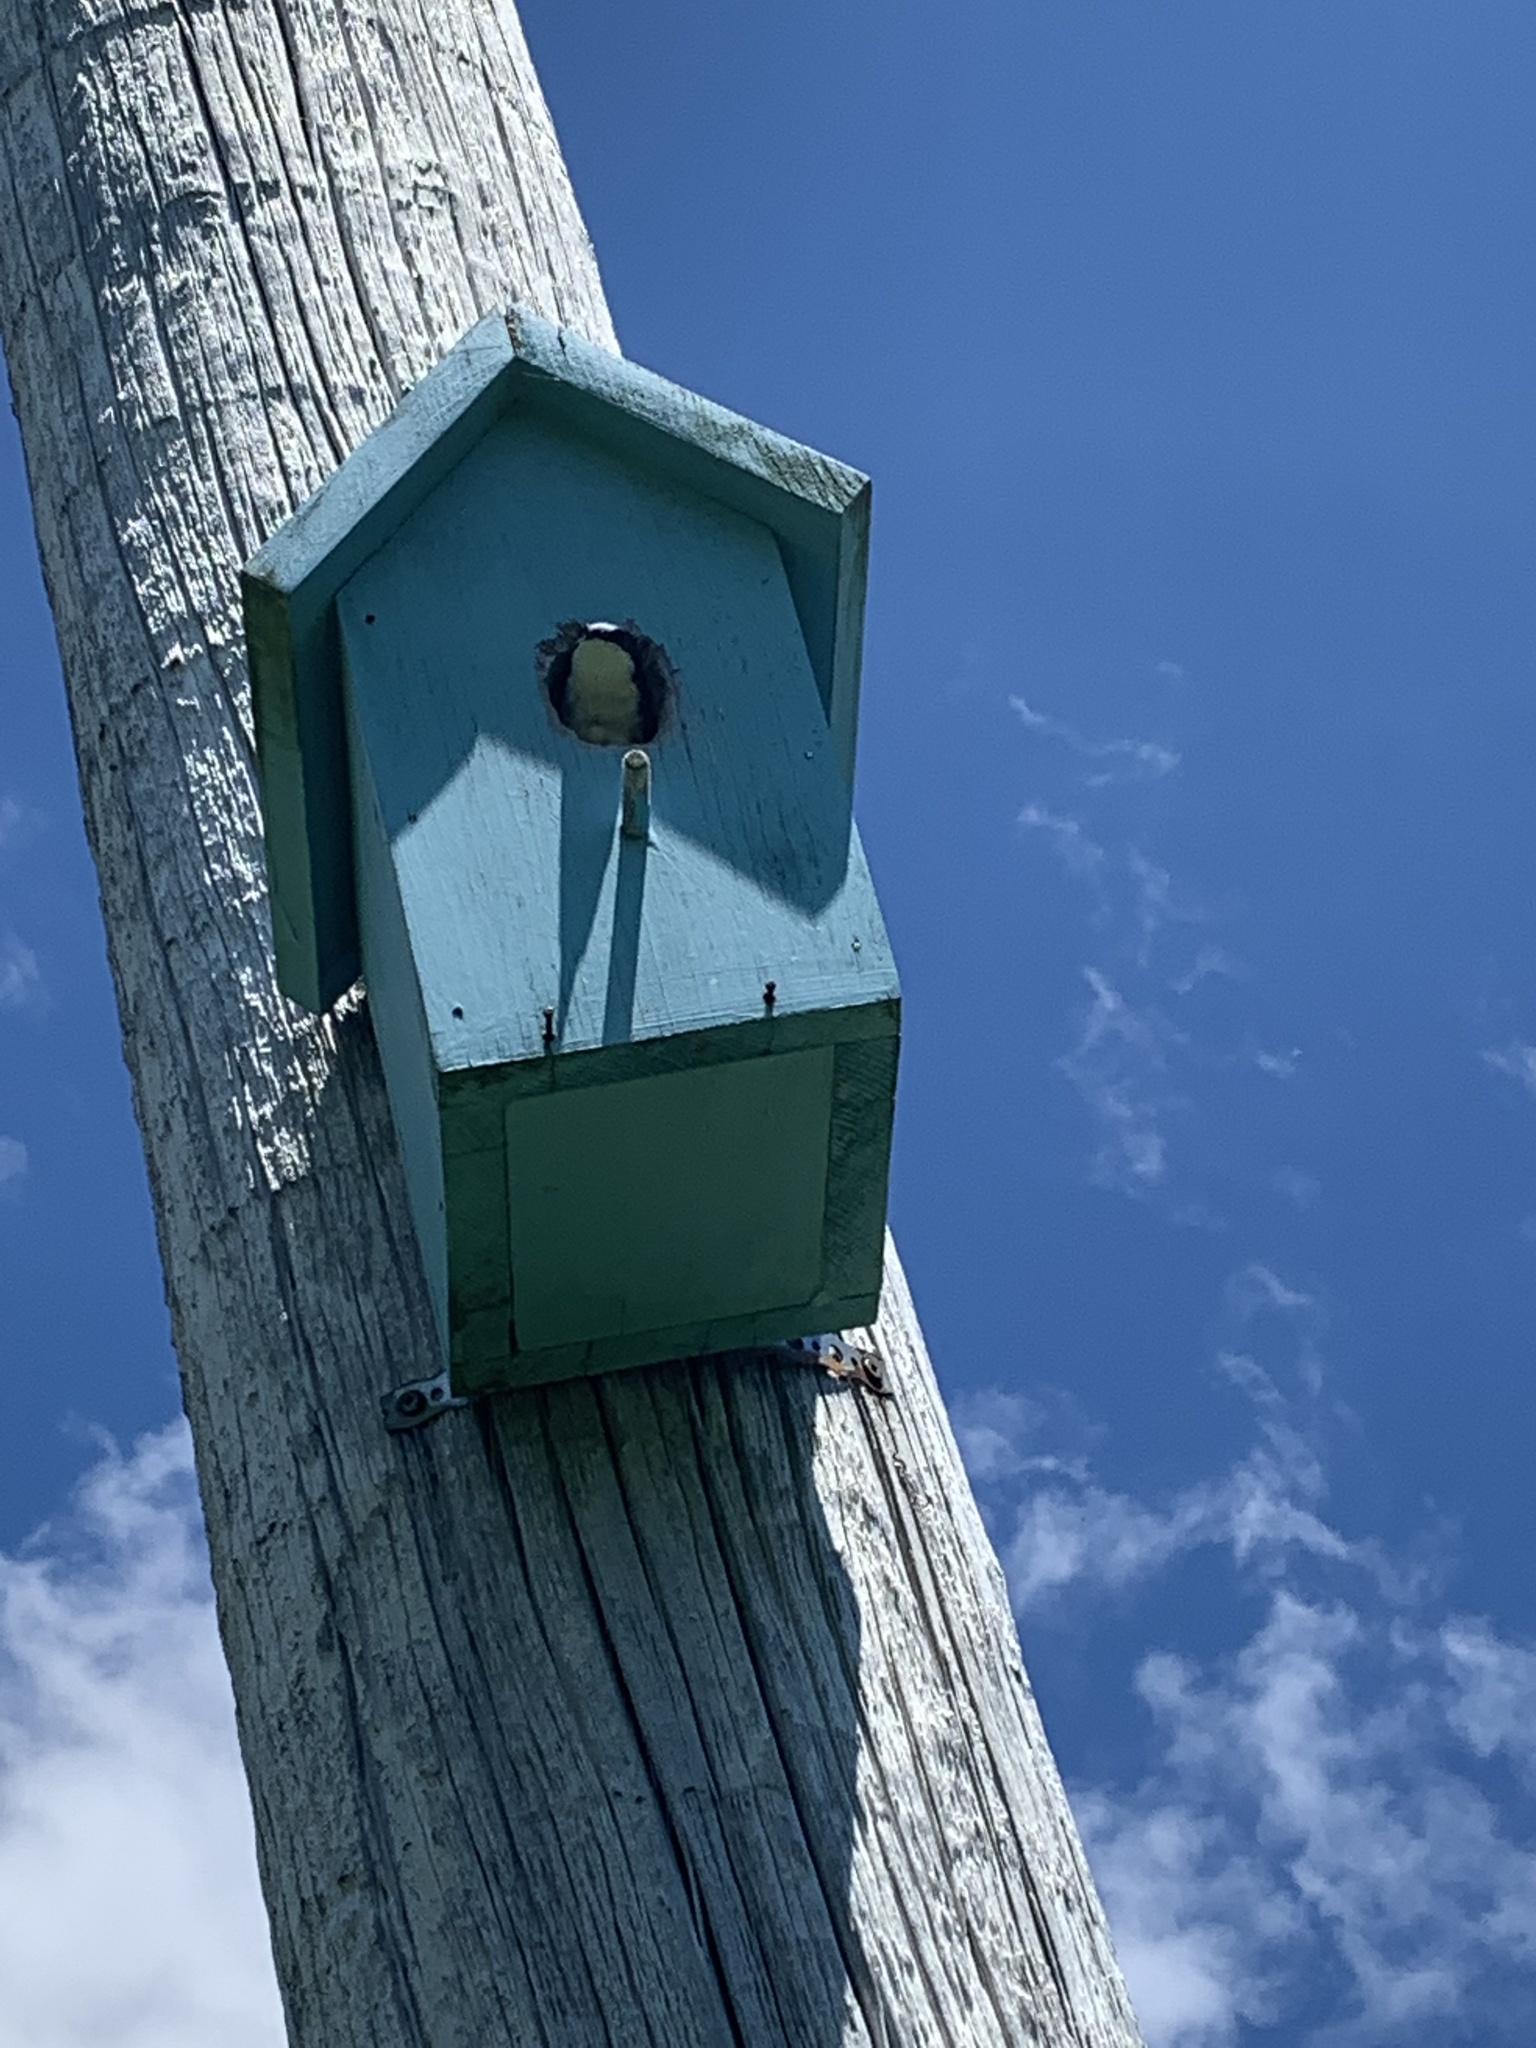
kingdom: Animalia
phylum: Chordata
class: Aves
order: Passeriformes
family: Hirundinidae
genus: Tachycineta
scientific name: Tachycineta bicolor
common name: Tree swallow
